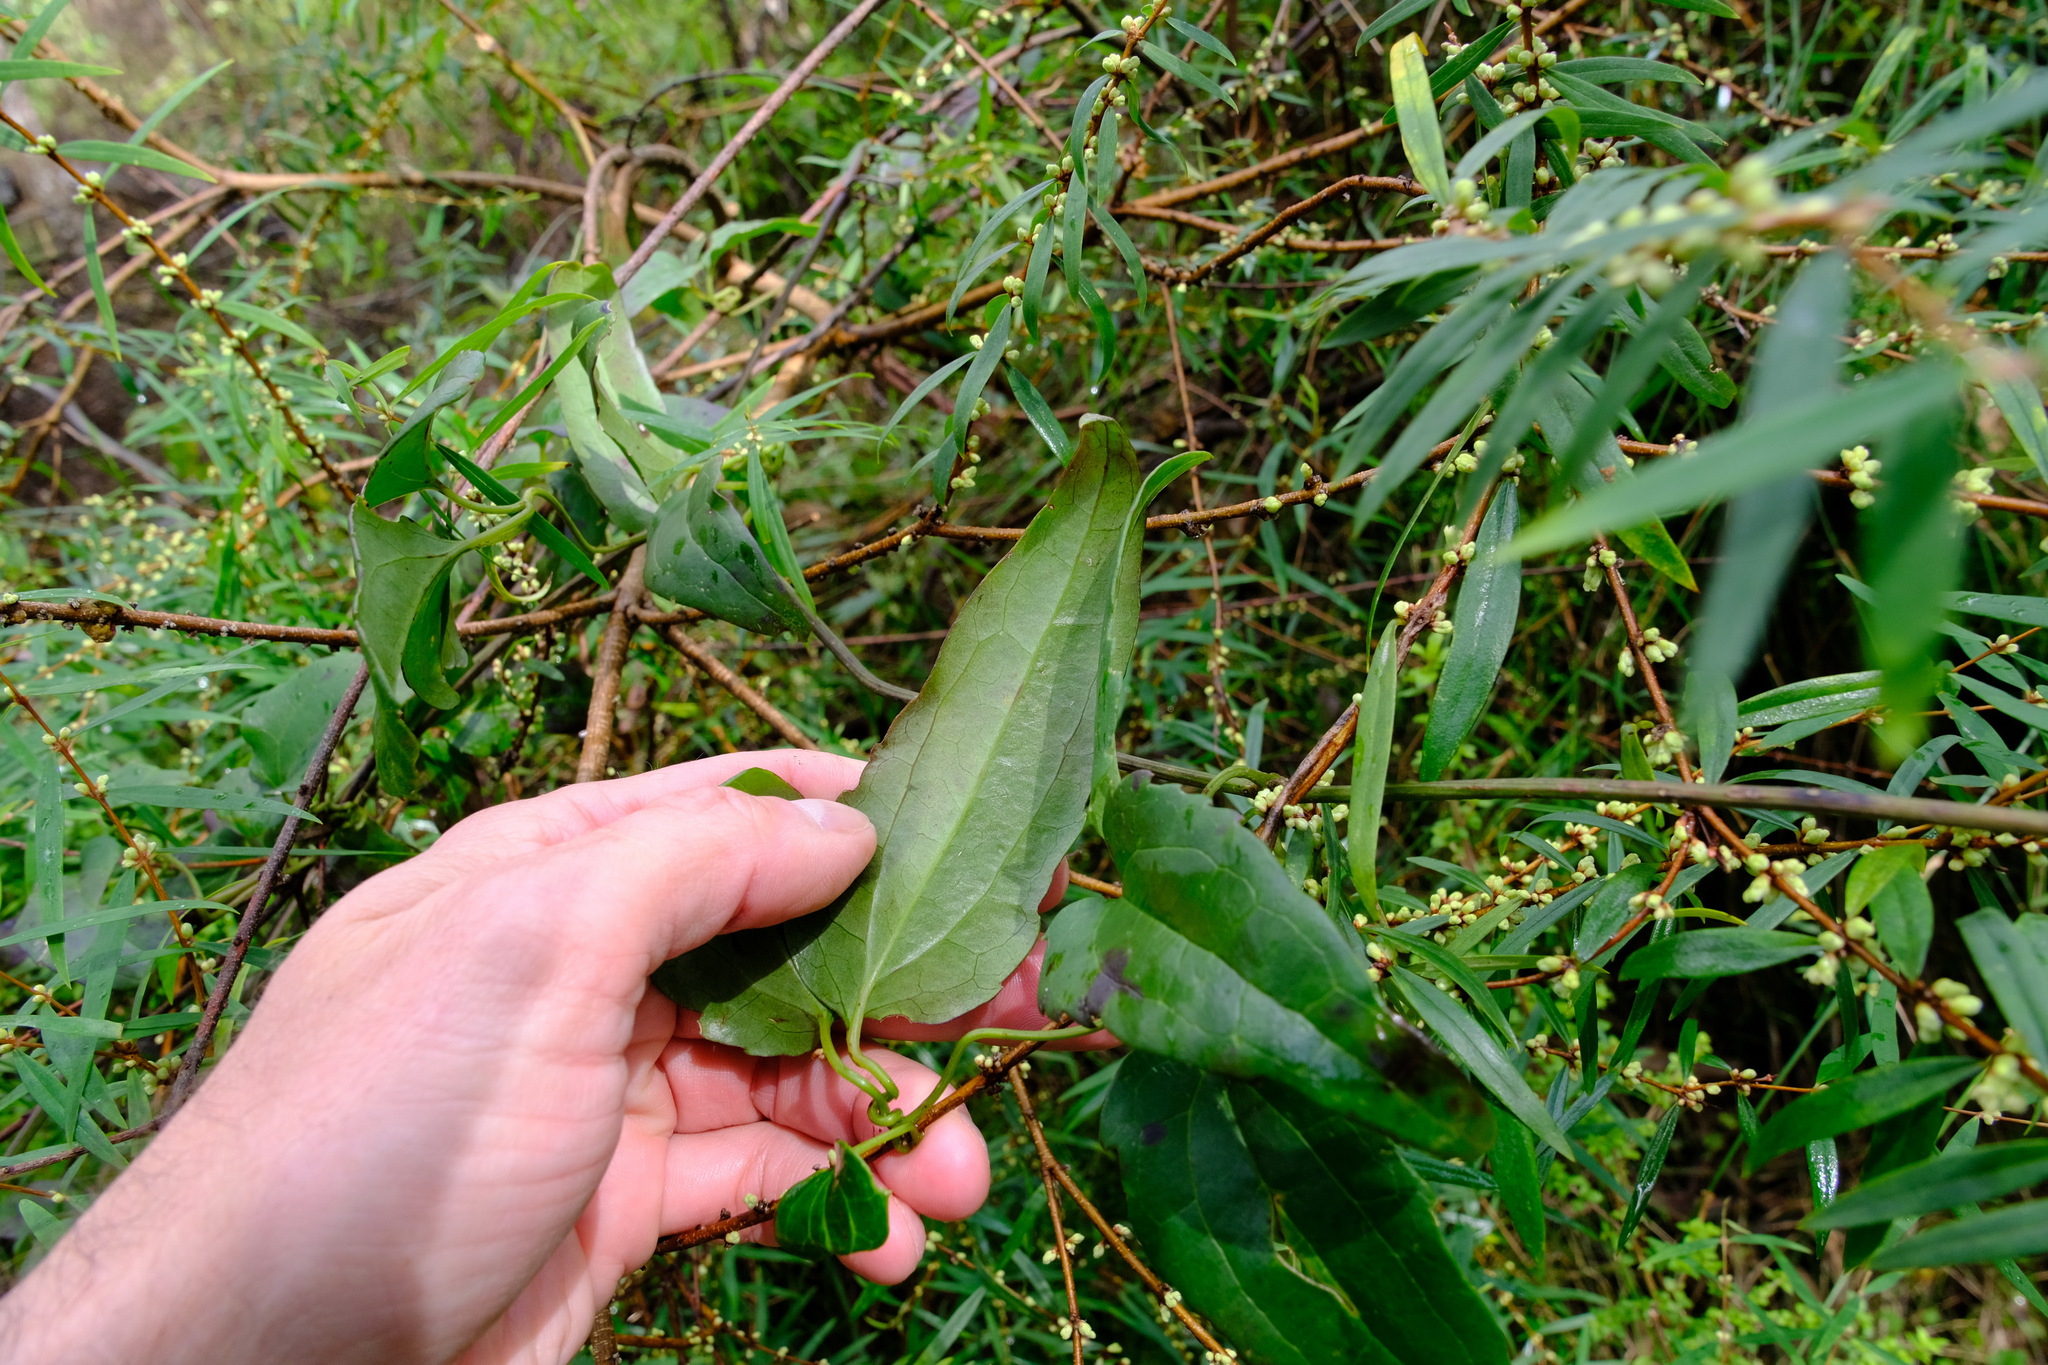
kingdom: Plantae
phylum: Tracheophyta
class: Magnoliopsida
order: Ranunculales
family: Ranunculaceae
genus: Clematis
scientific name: Clematis aristata
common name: Mountain clematis
